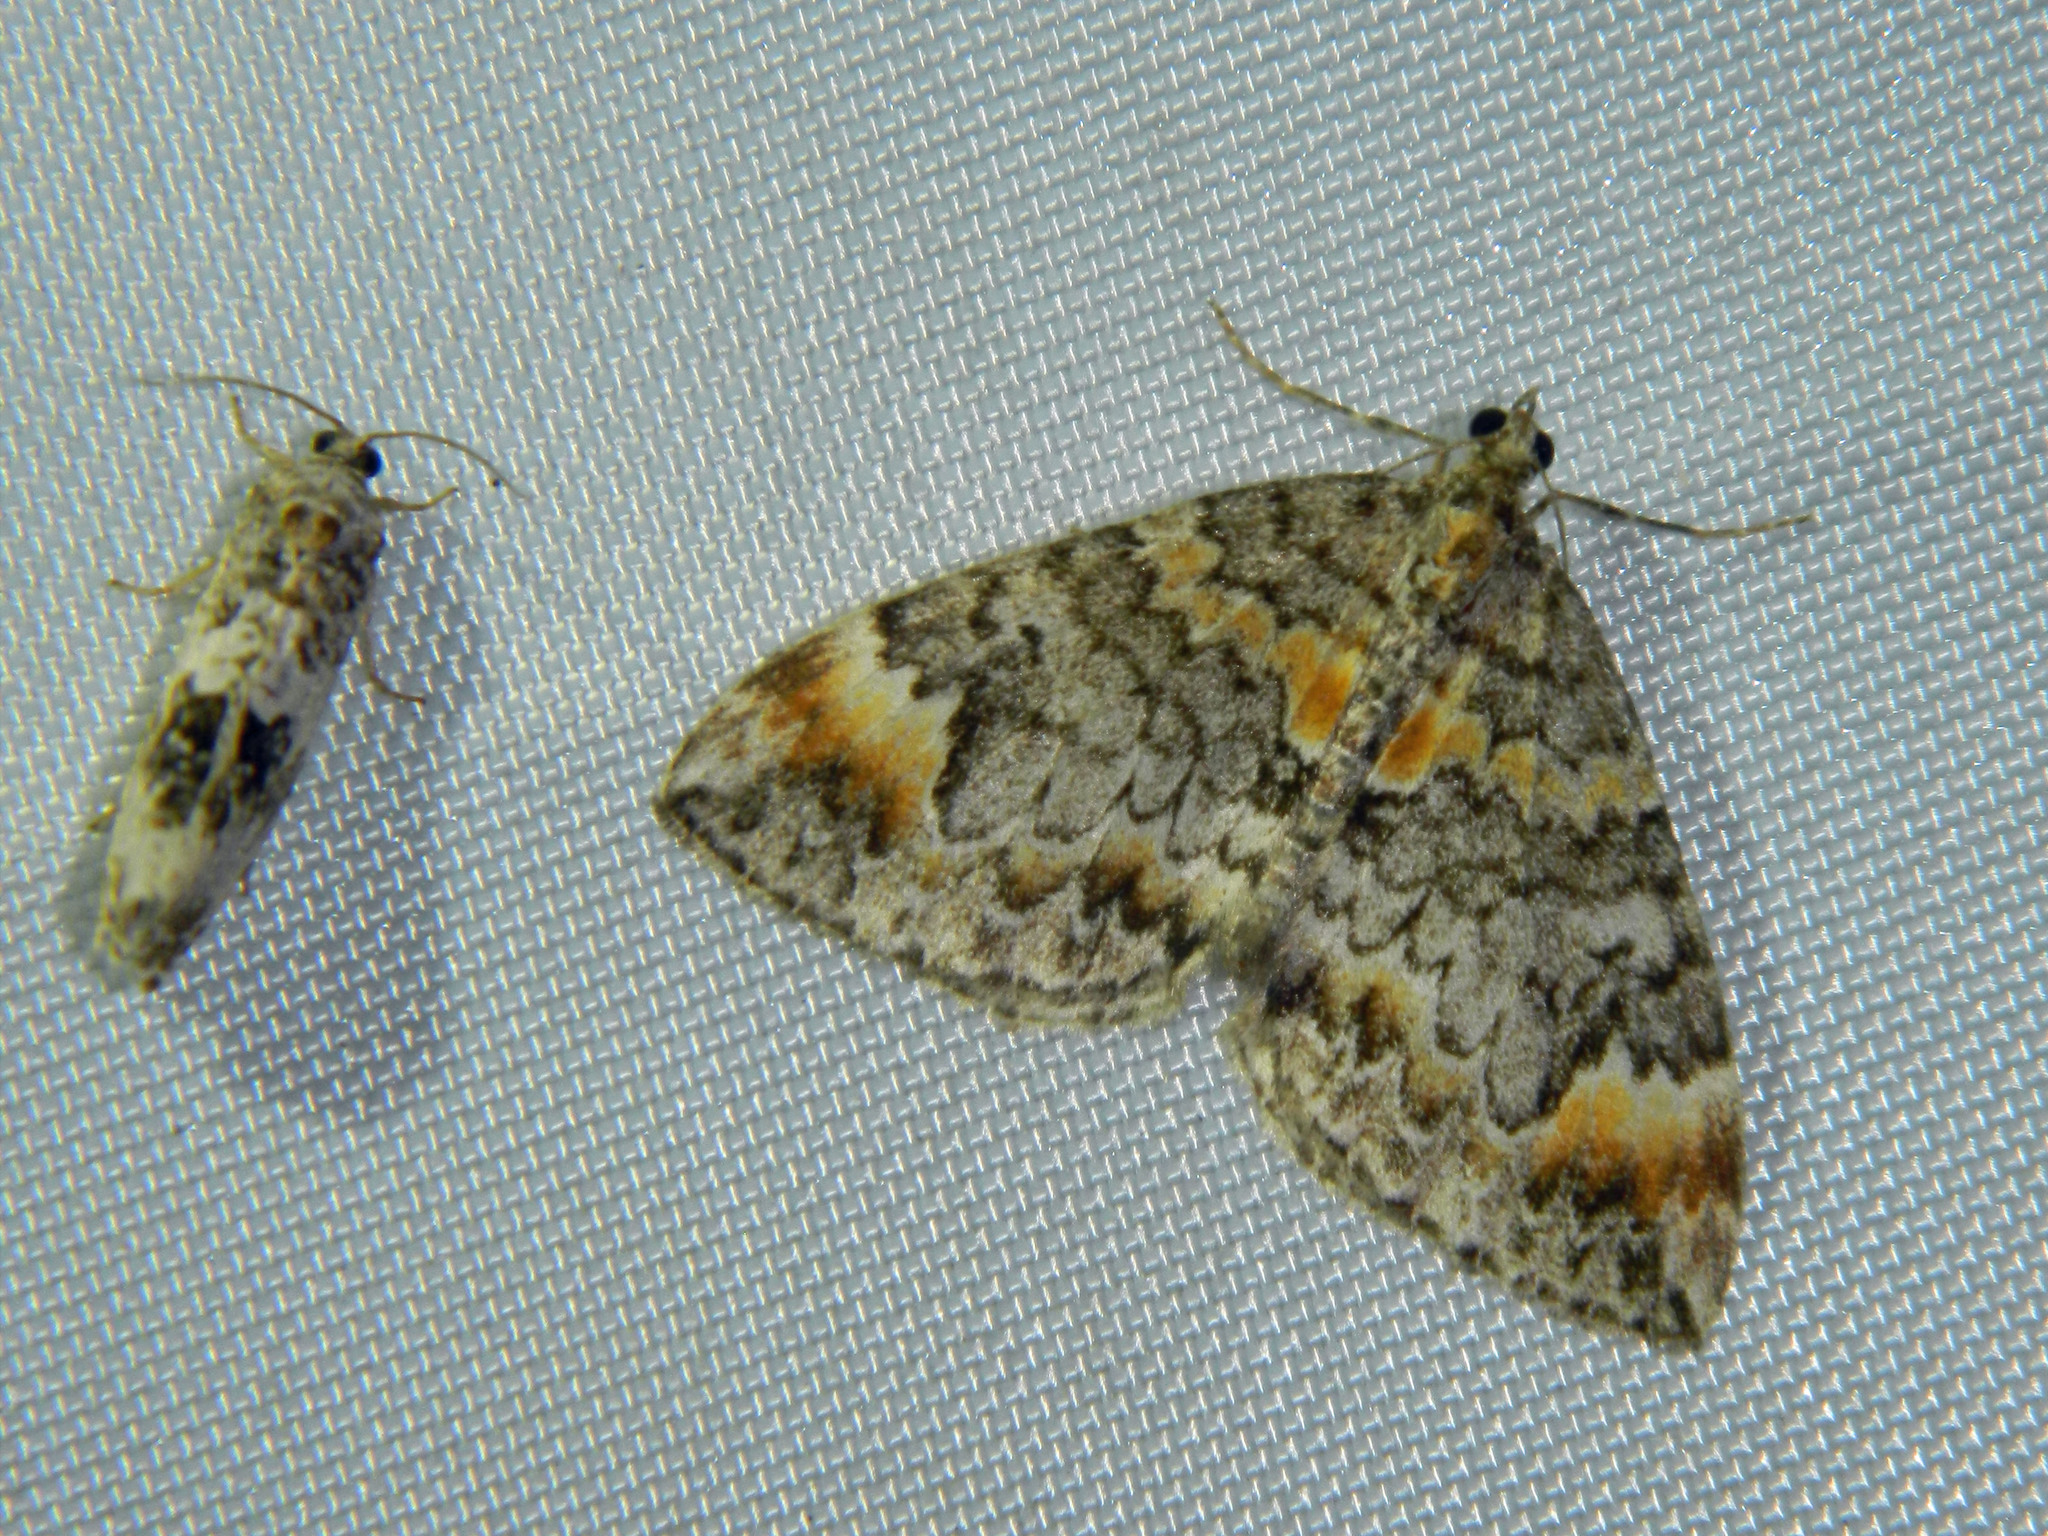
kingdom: Animalia
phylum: Arthropoda
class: Insecta
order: Lepidoptera
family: Geometridae
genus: Dysstroma
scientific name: Dysstroma truncata
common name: Common marbled carpet
